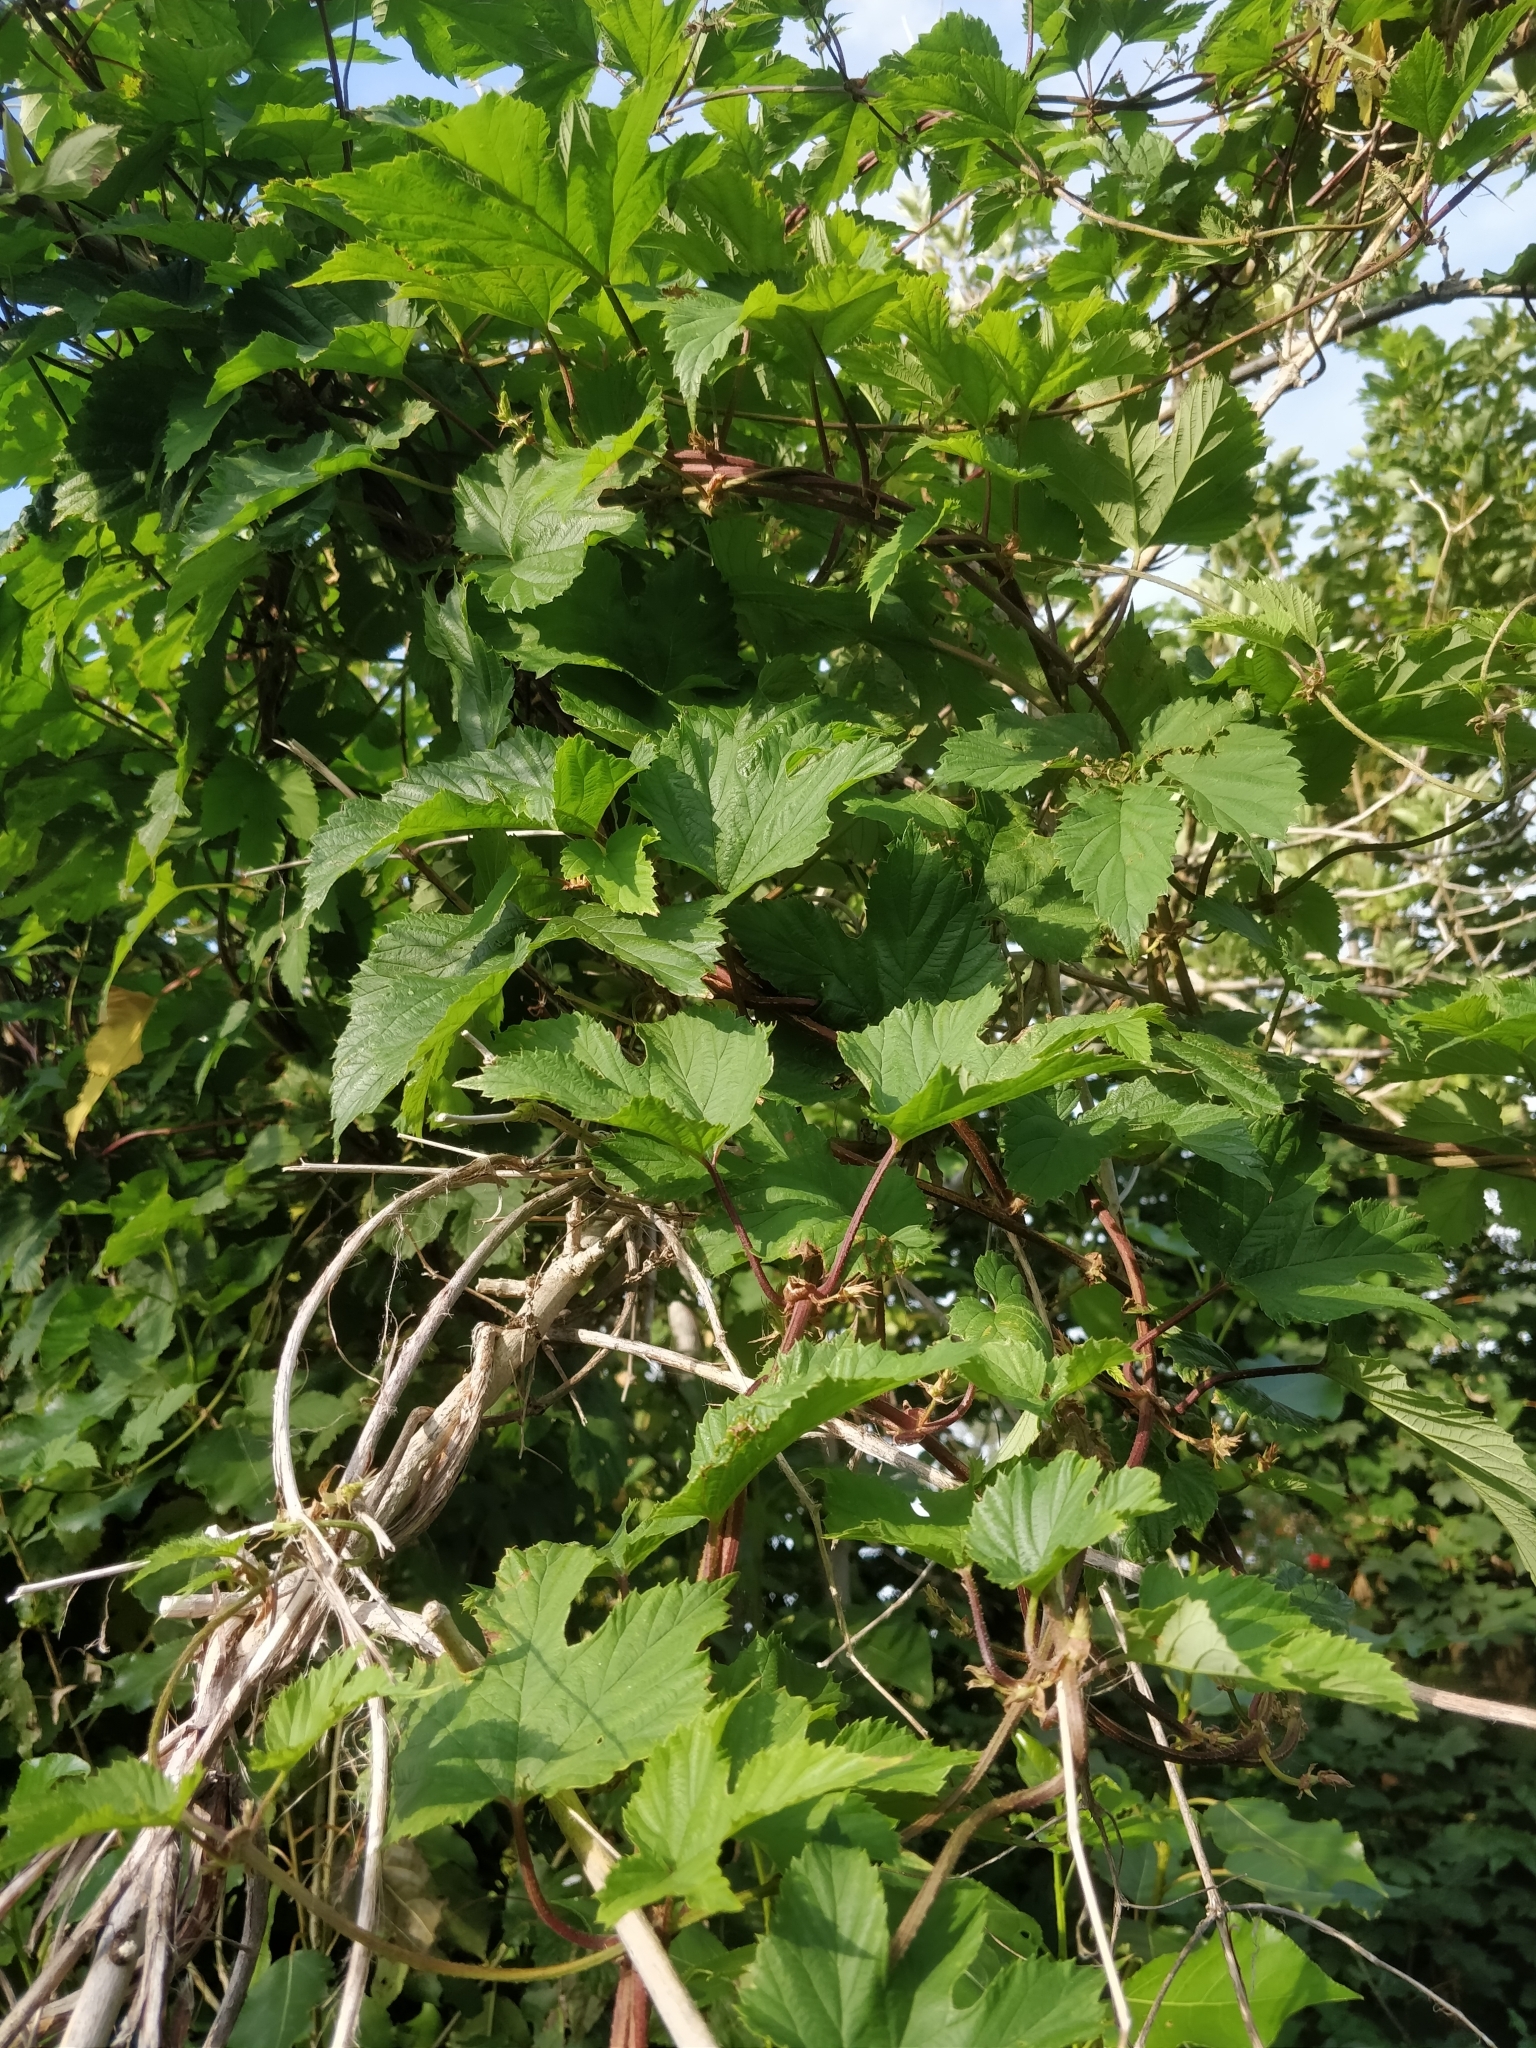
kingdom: Plantae
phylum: Tracheophyta
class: Magnoliopsida
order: Rosales
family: Cannabaceae
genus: Humulus
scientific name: Humulus lupulus
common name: Hop
